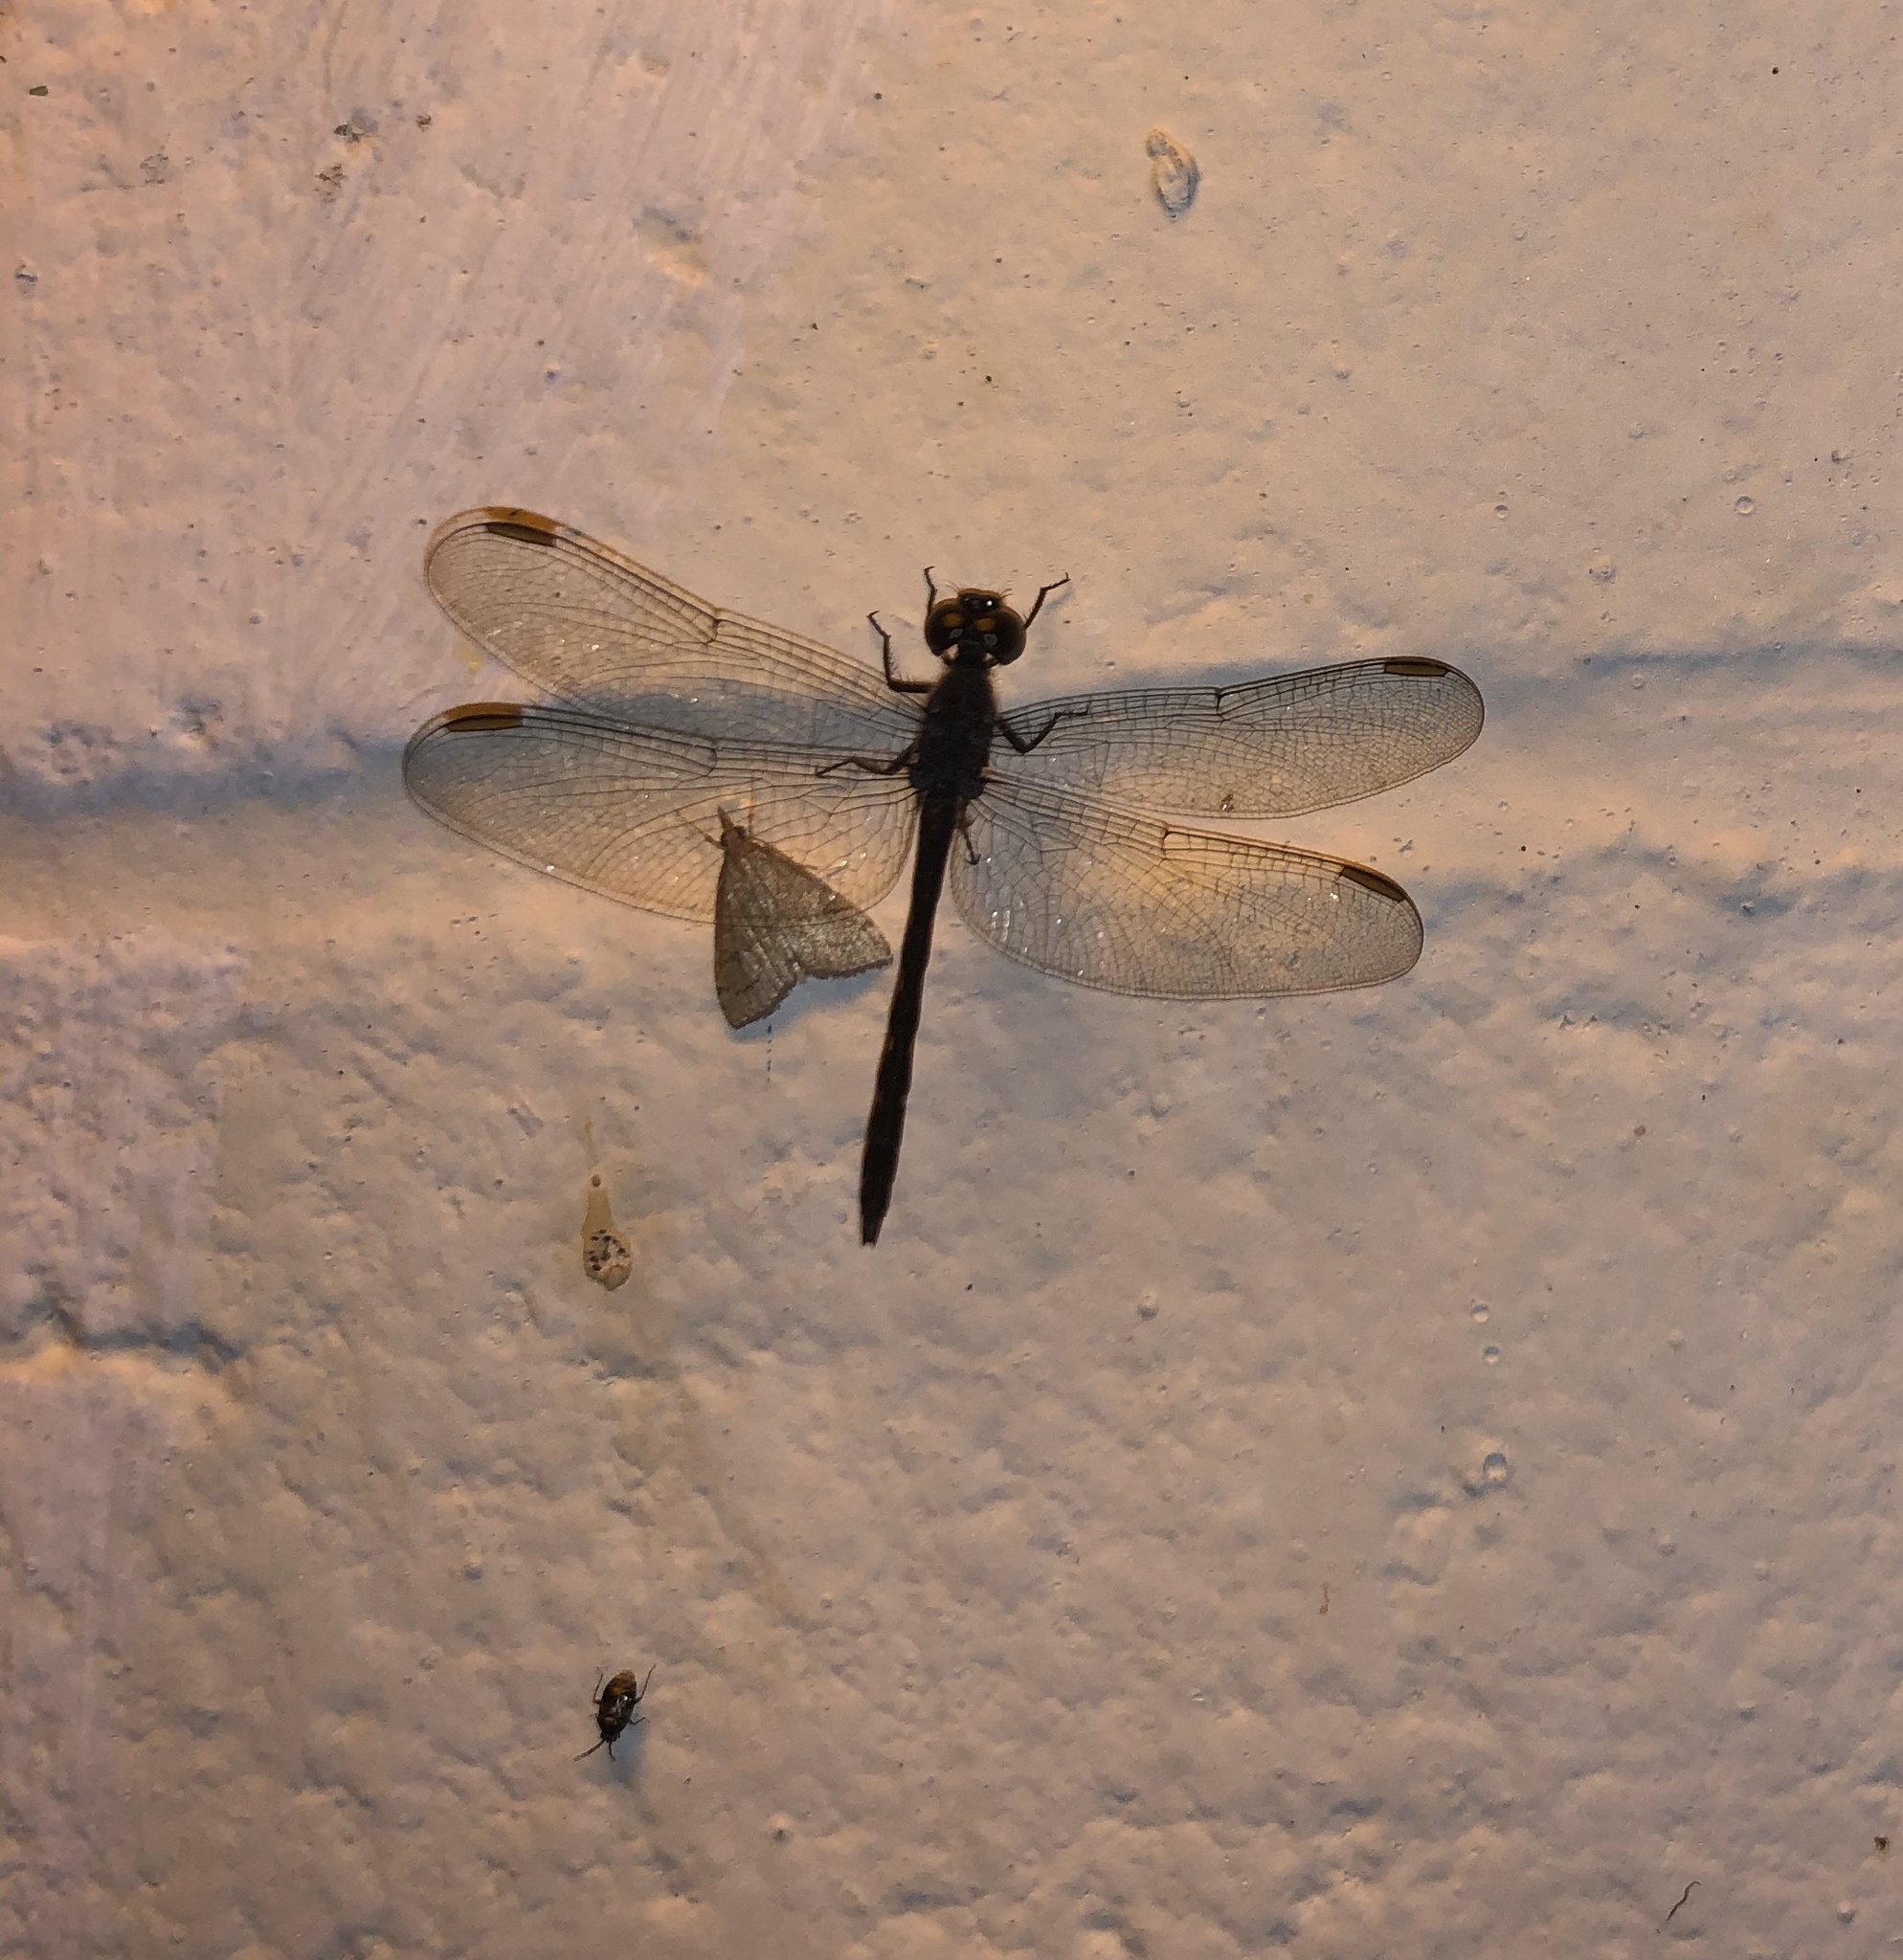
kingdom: Animalia
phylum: Arthropoda
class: Insecta
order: Odonata
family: Libellulidae
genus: Erythrodiplax
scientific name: Erythrodiplax berenice
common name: Seaside dragonlet
